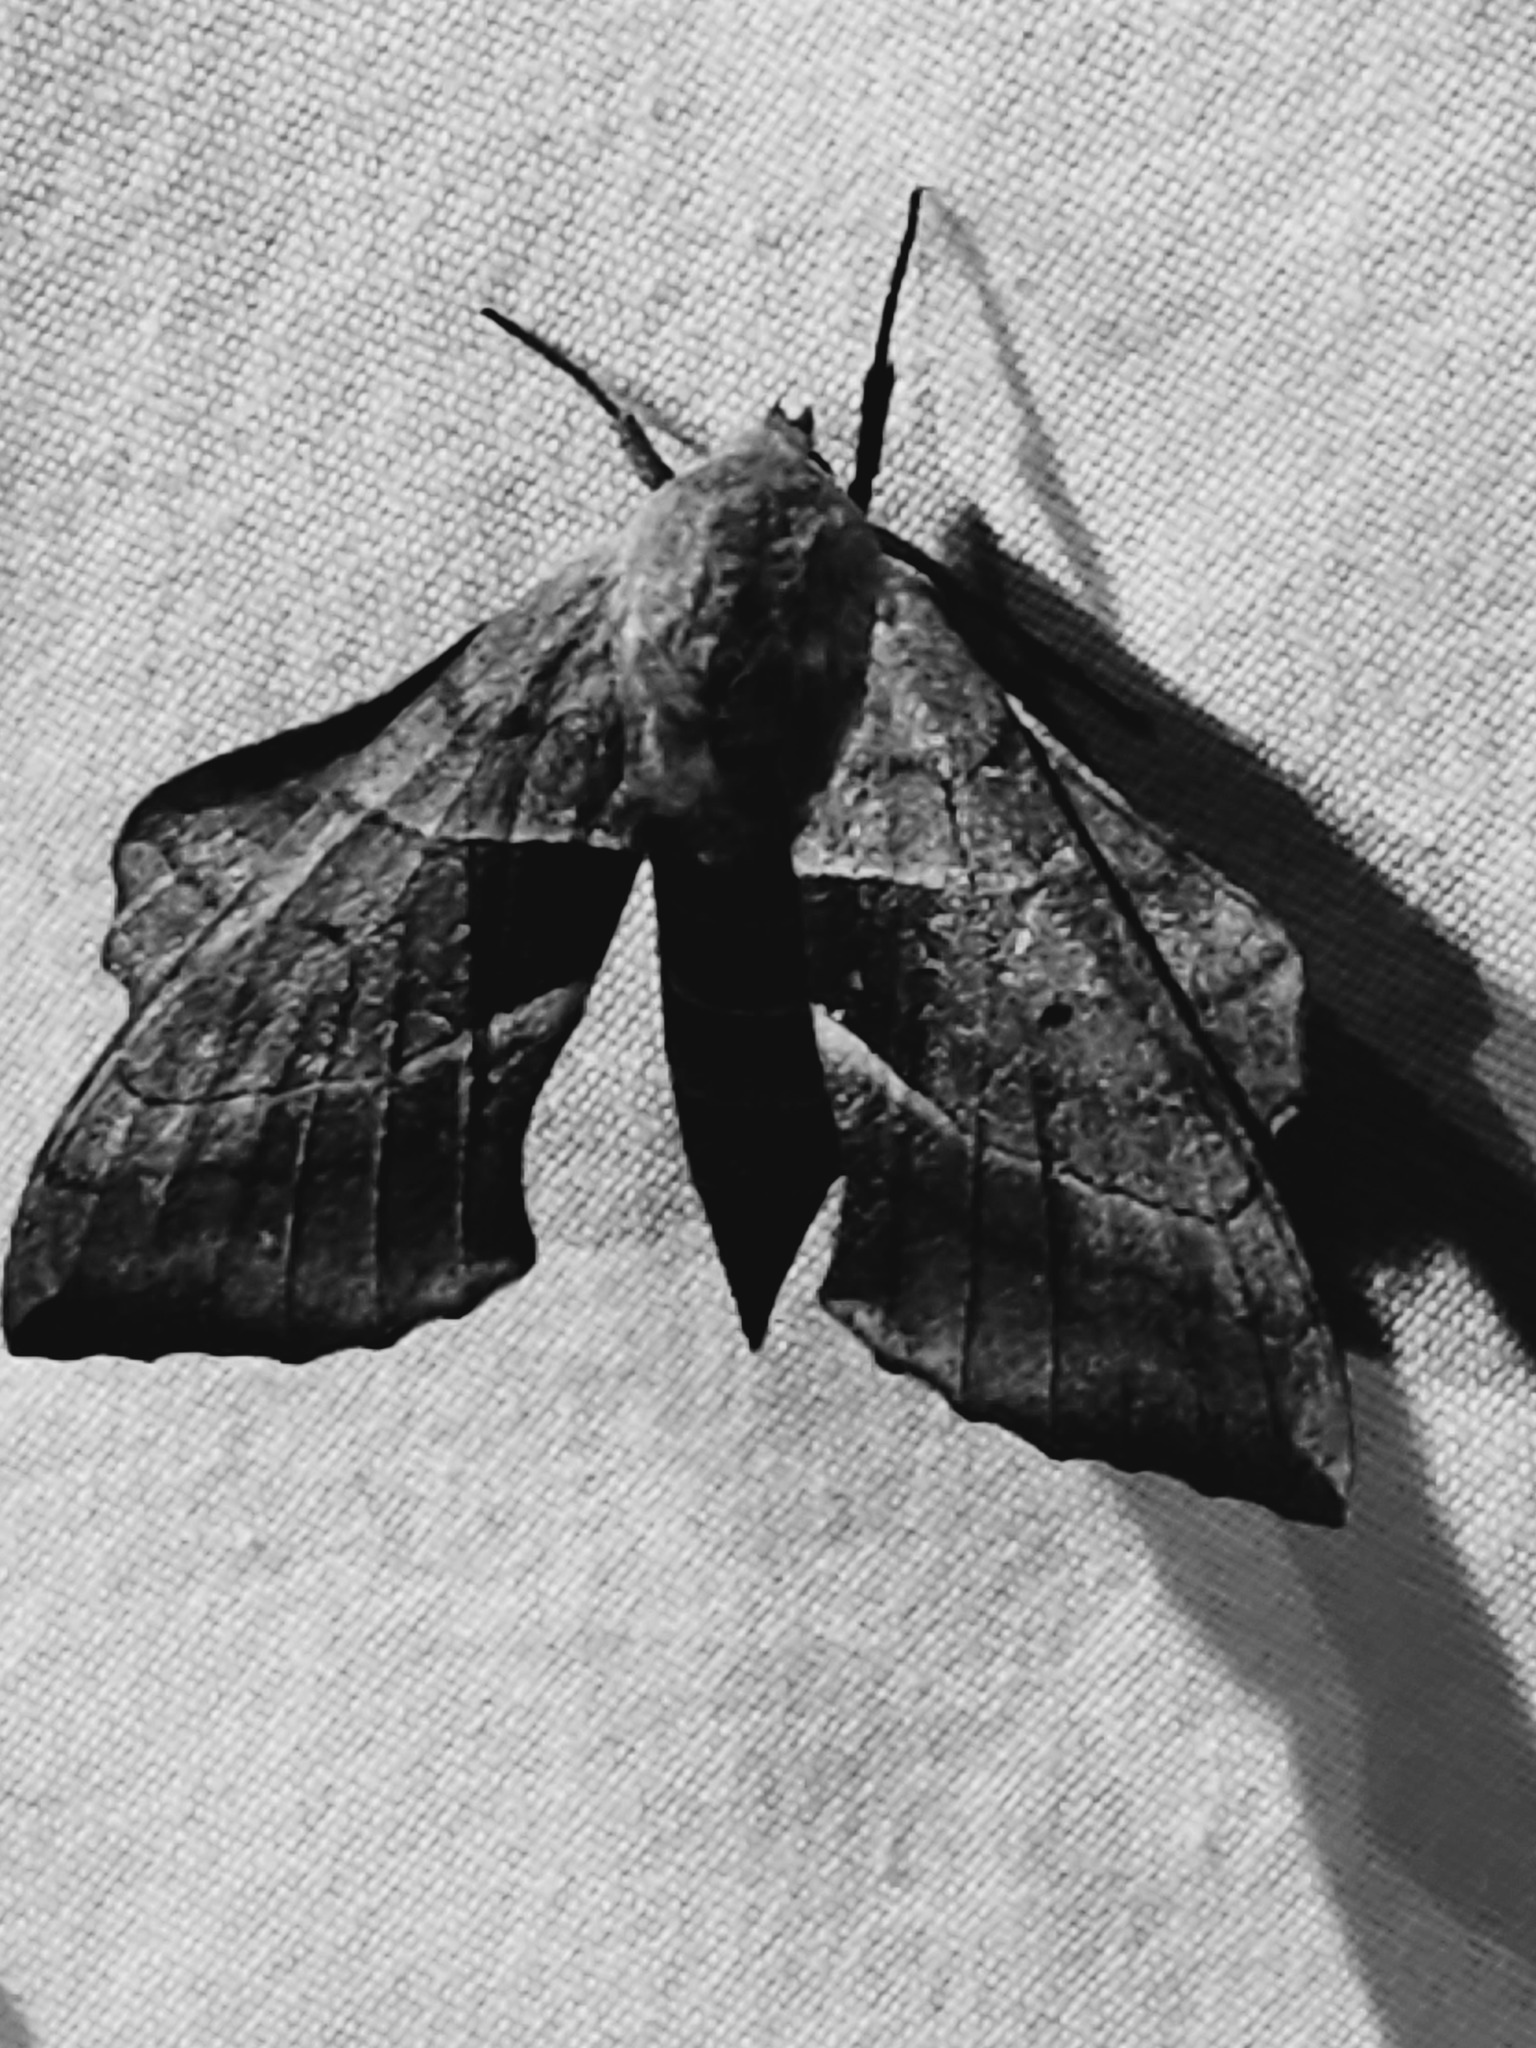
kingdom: Animalia
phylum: Arthropoda
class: Insecta
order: Lepidoptera
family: Sphingidae
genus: Amorpha
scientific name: Amorpha juglandis
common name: Walnut sphinx
